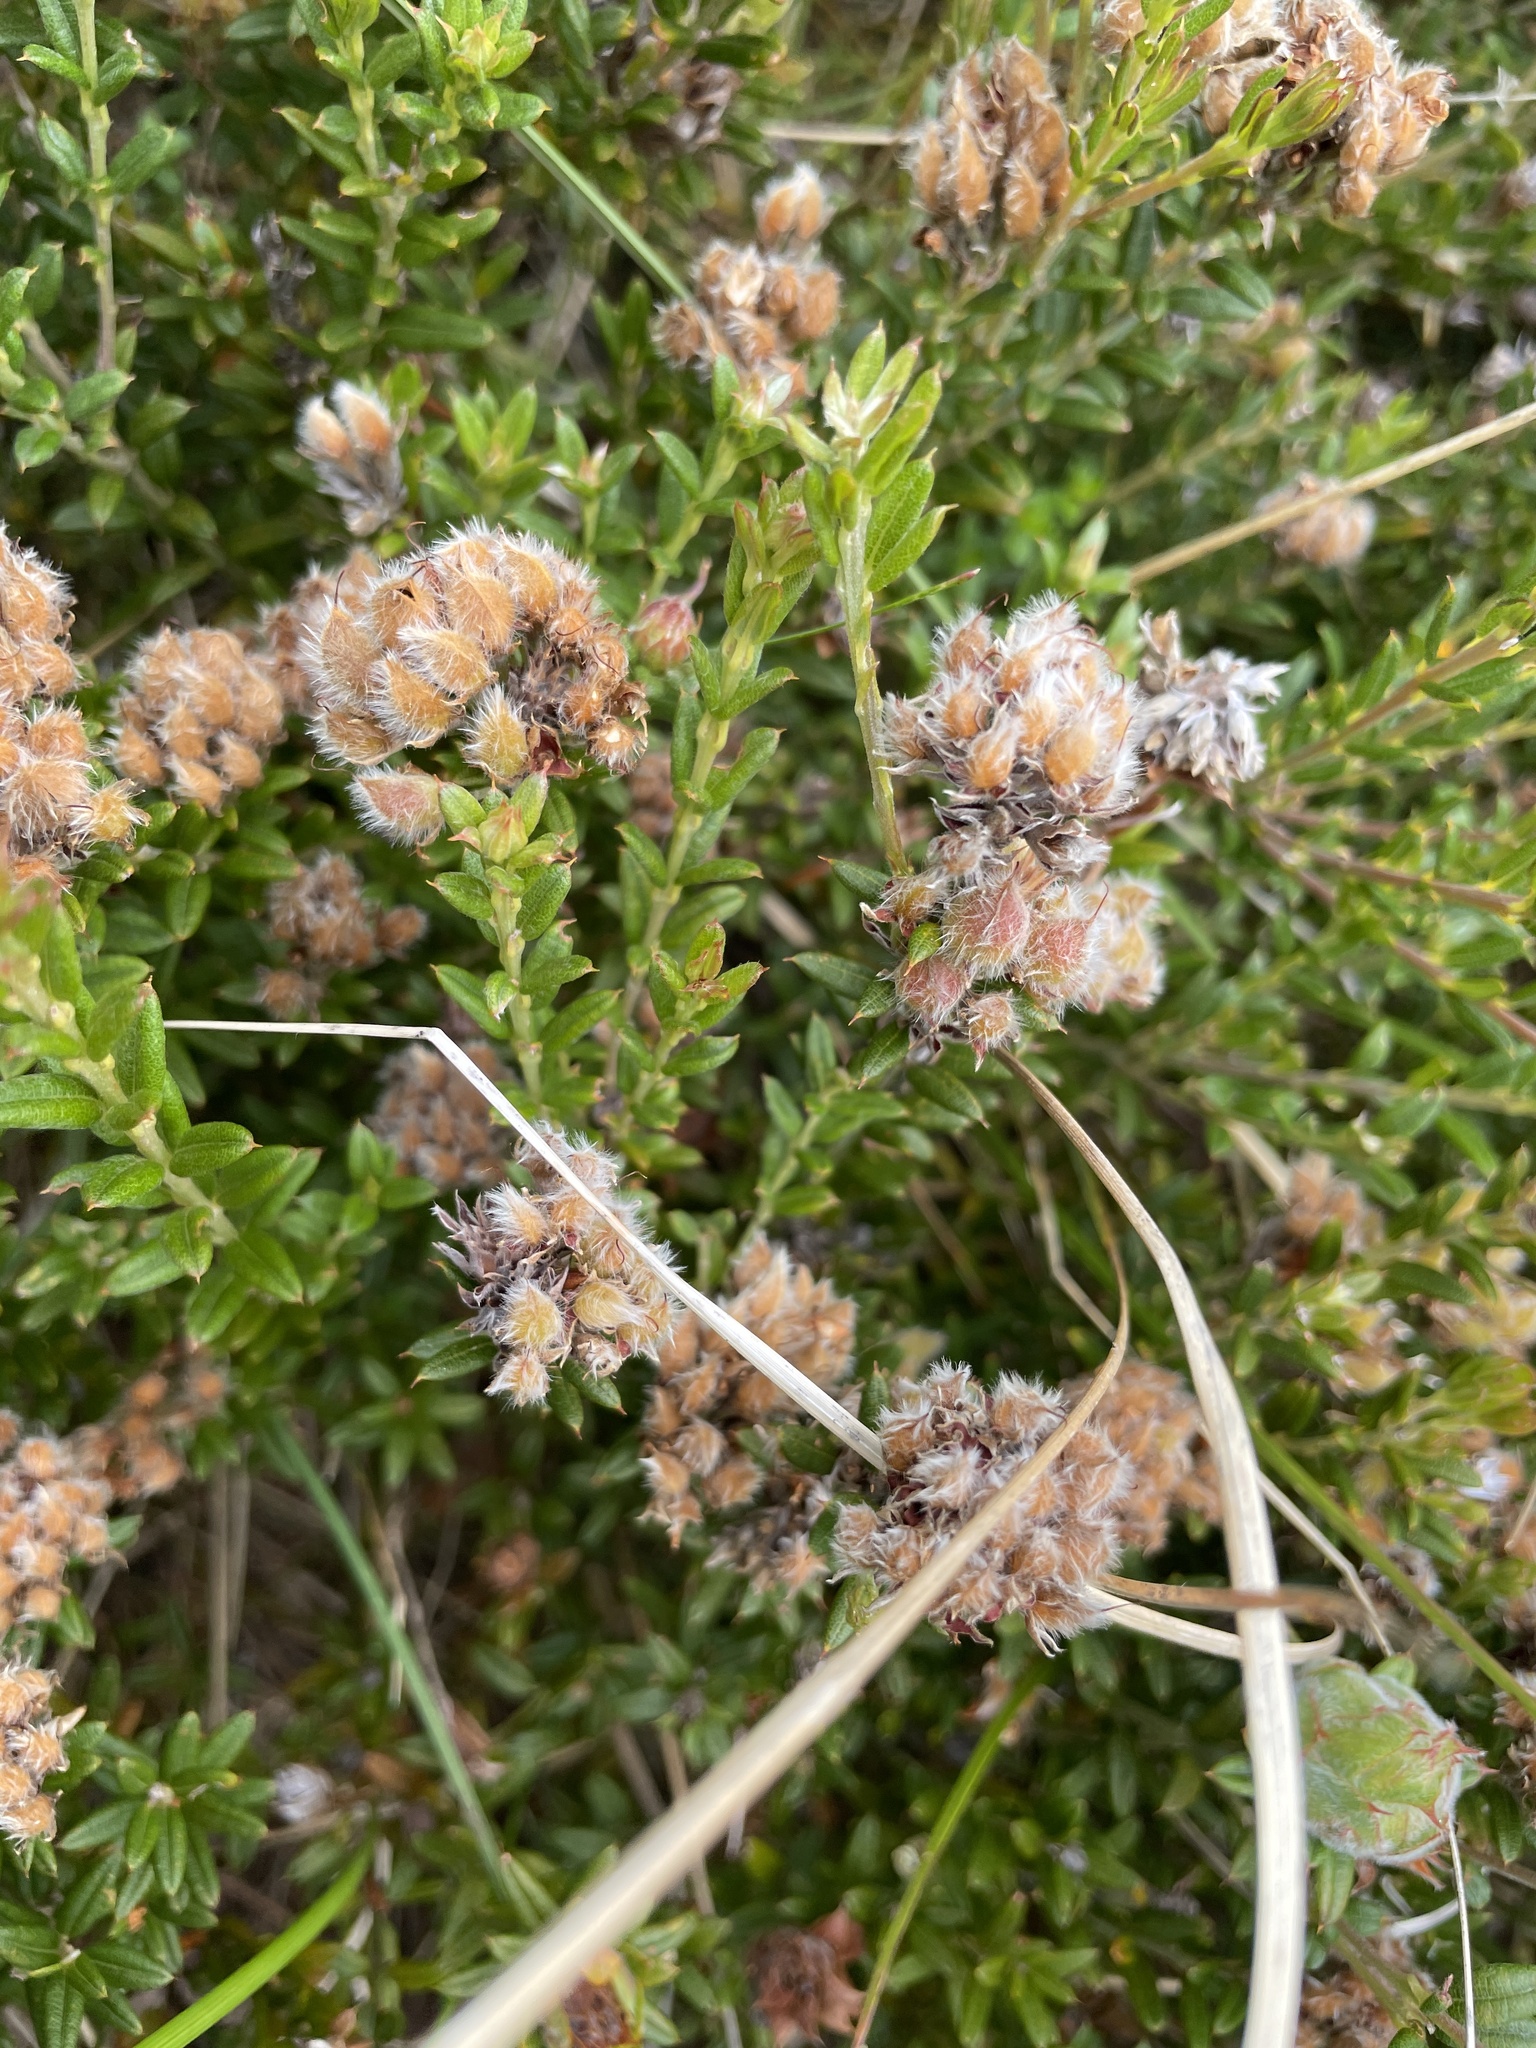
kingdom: Plantae
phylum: Tracheophyta
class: Magnoliopsida
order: Fabales
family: Fabaceae
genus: Oxylobium
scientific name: Oxylobium ellipticum
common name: Golden shaggy-pea
